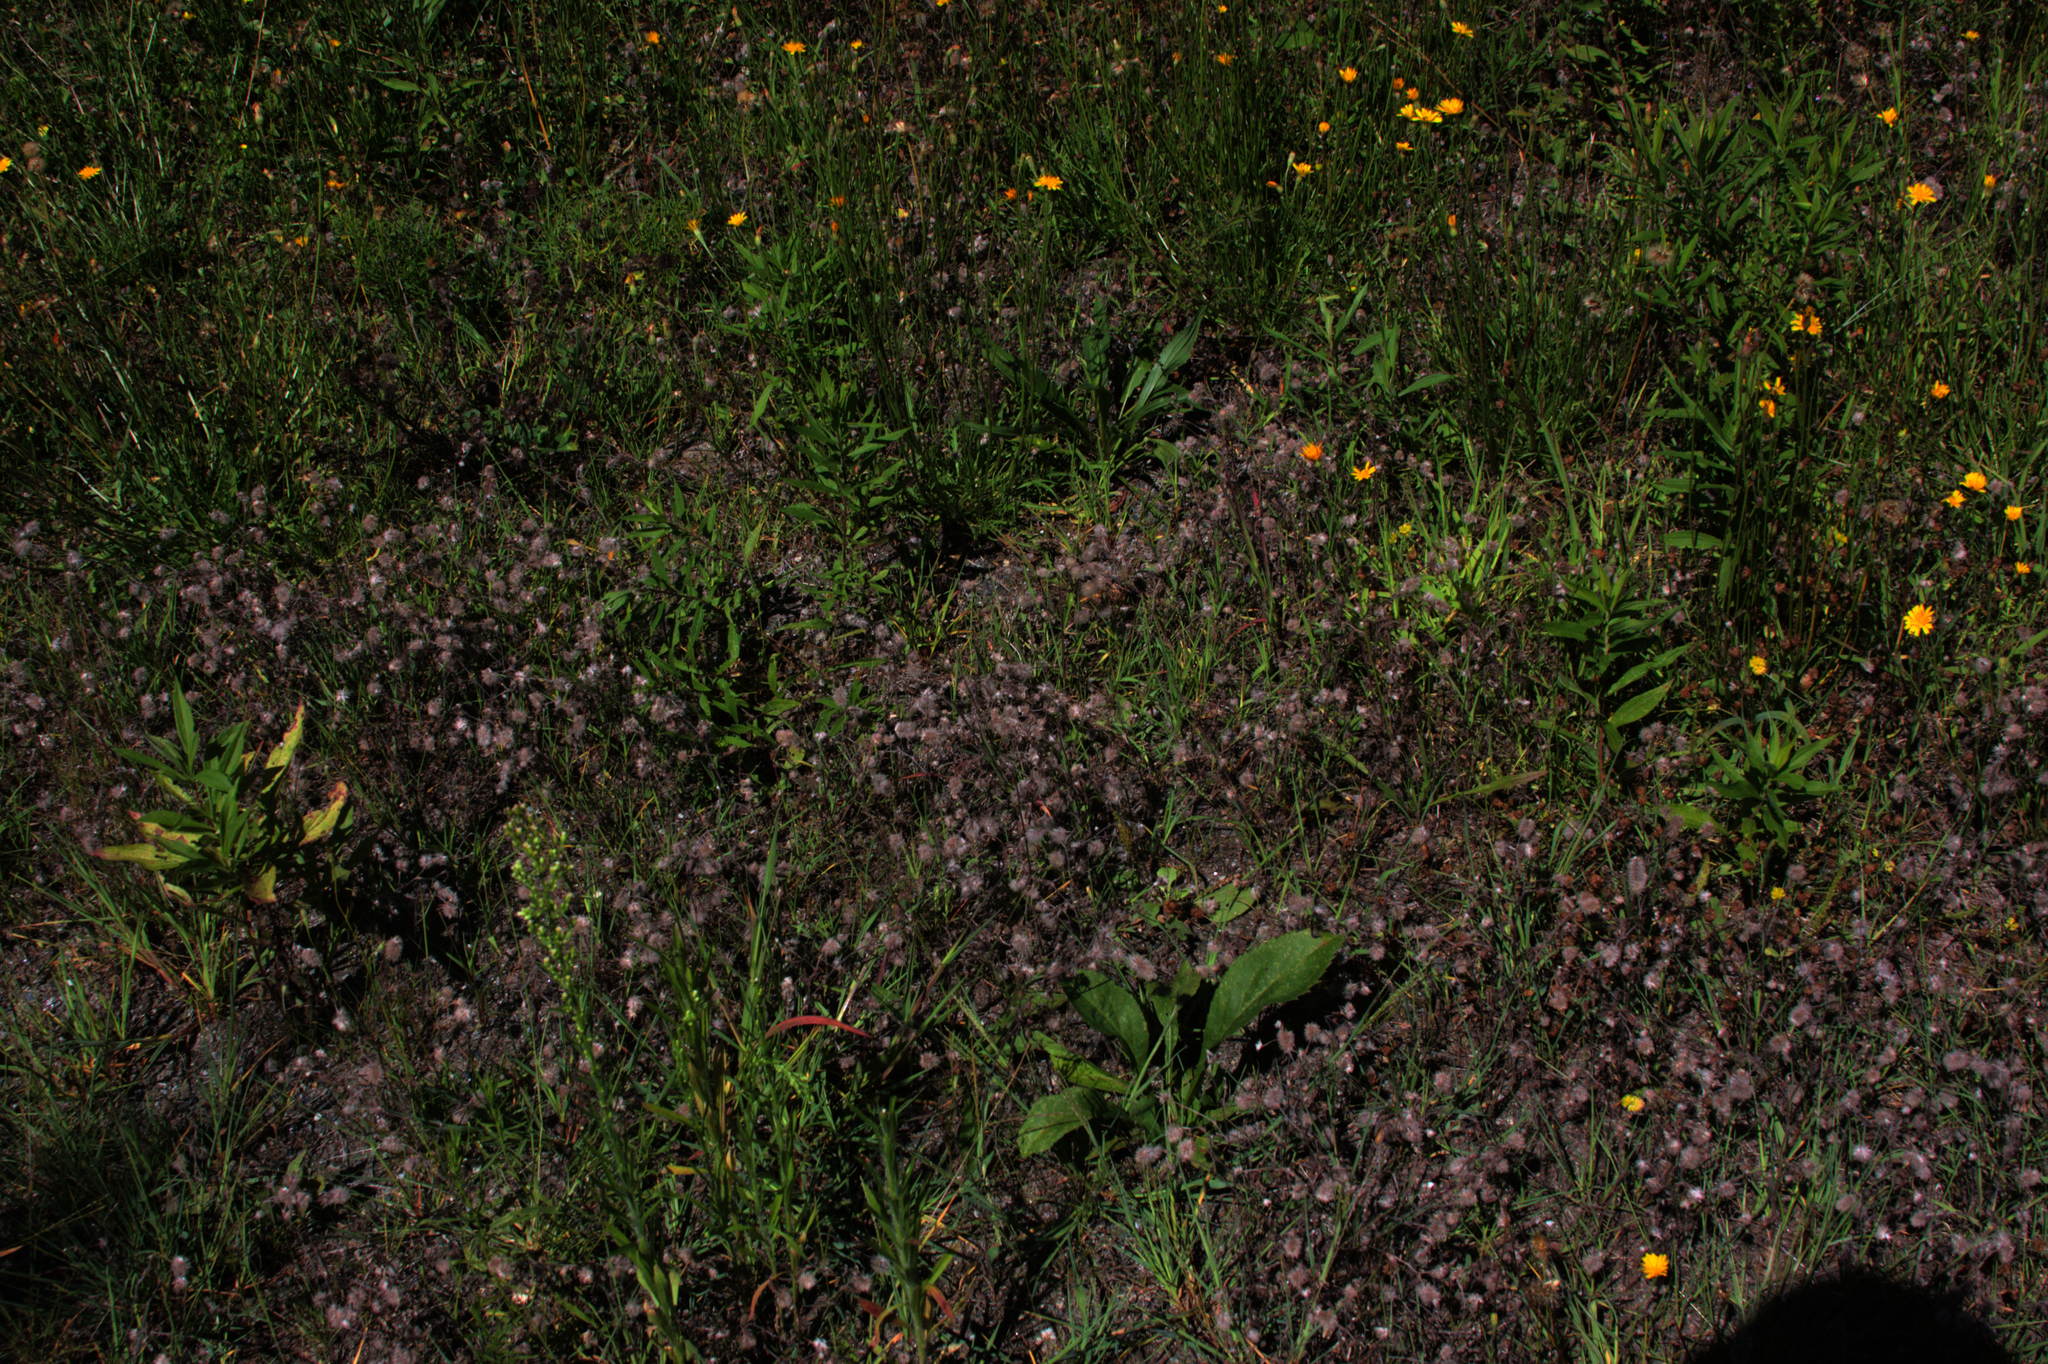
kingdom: Plantae
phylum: Tracheophyta
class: Magnoliopsida
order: Fabales
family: Fabaceae
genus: Trifolium
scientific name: Trifolium arvense
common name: Hare's-foot clover
